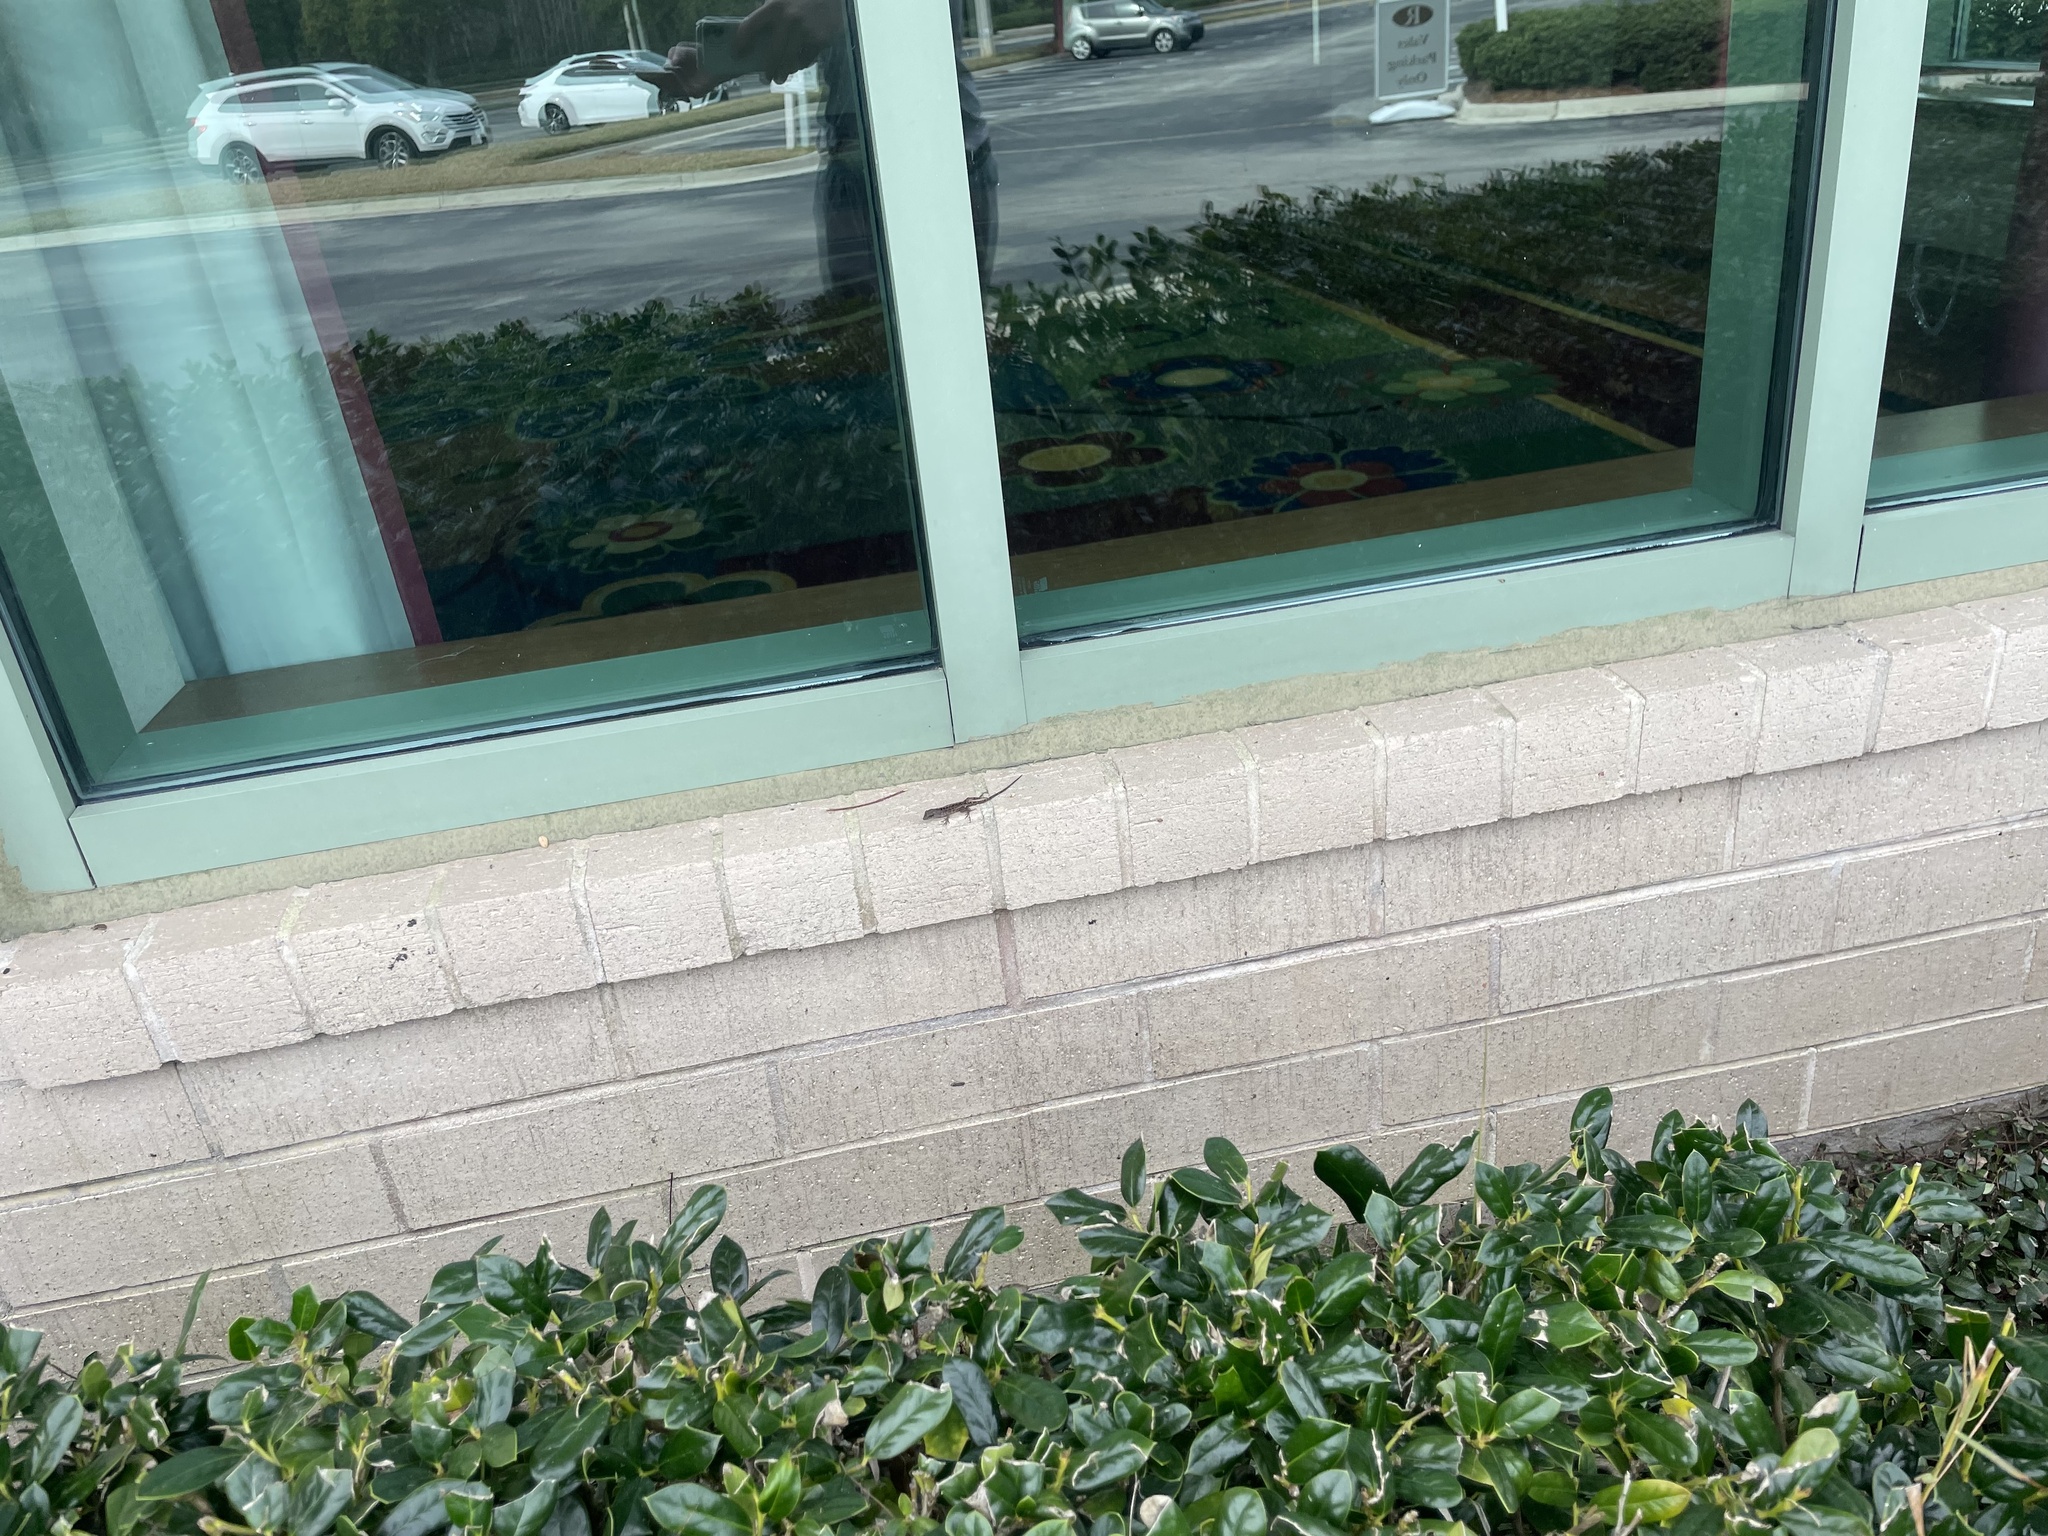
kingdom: Animalia
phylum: Chordata
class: Squamata
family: Dactyloidae
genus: Anolis
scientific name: Anolis sagrei
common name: Brown anole
